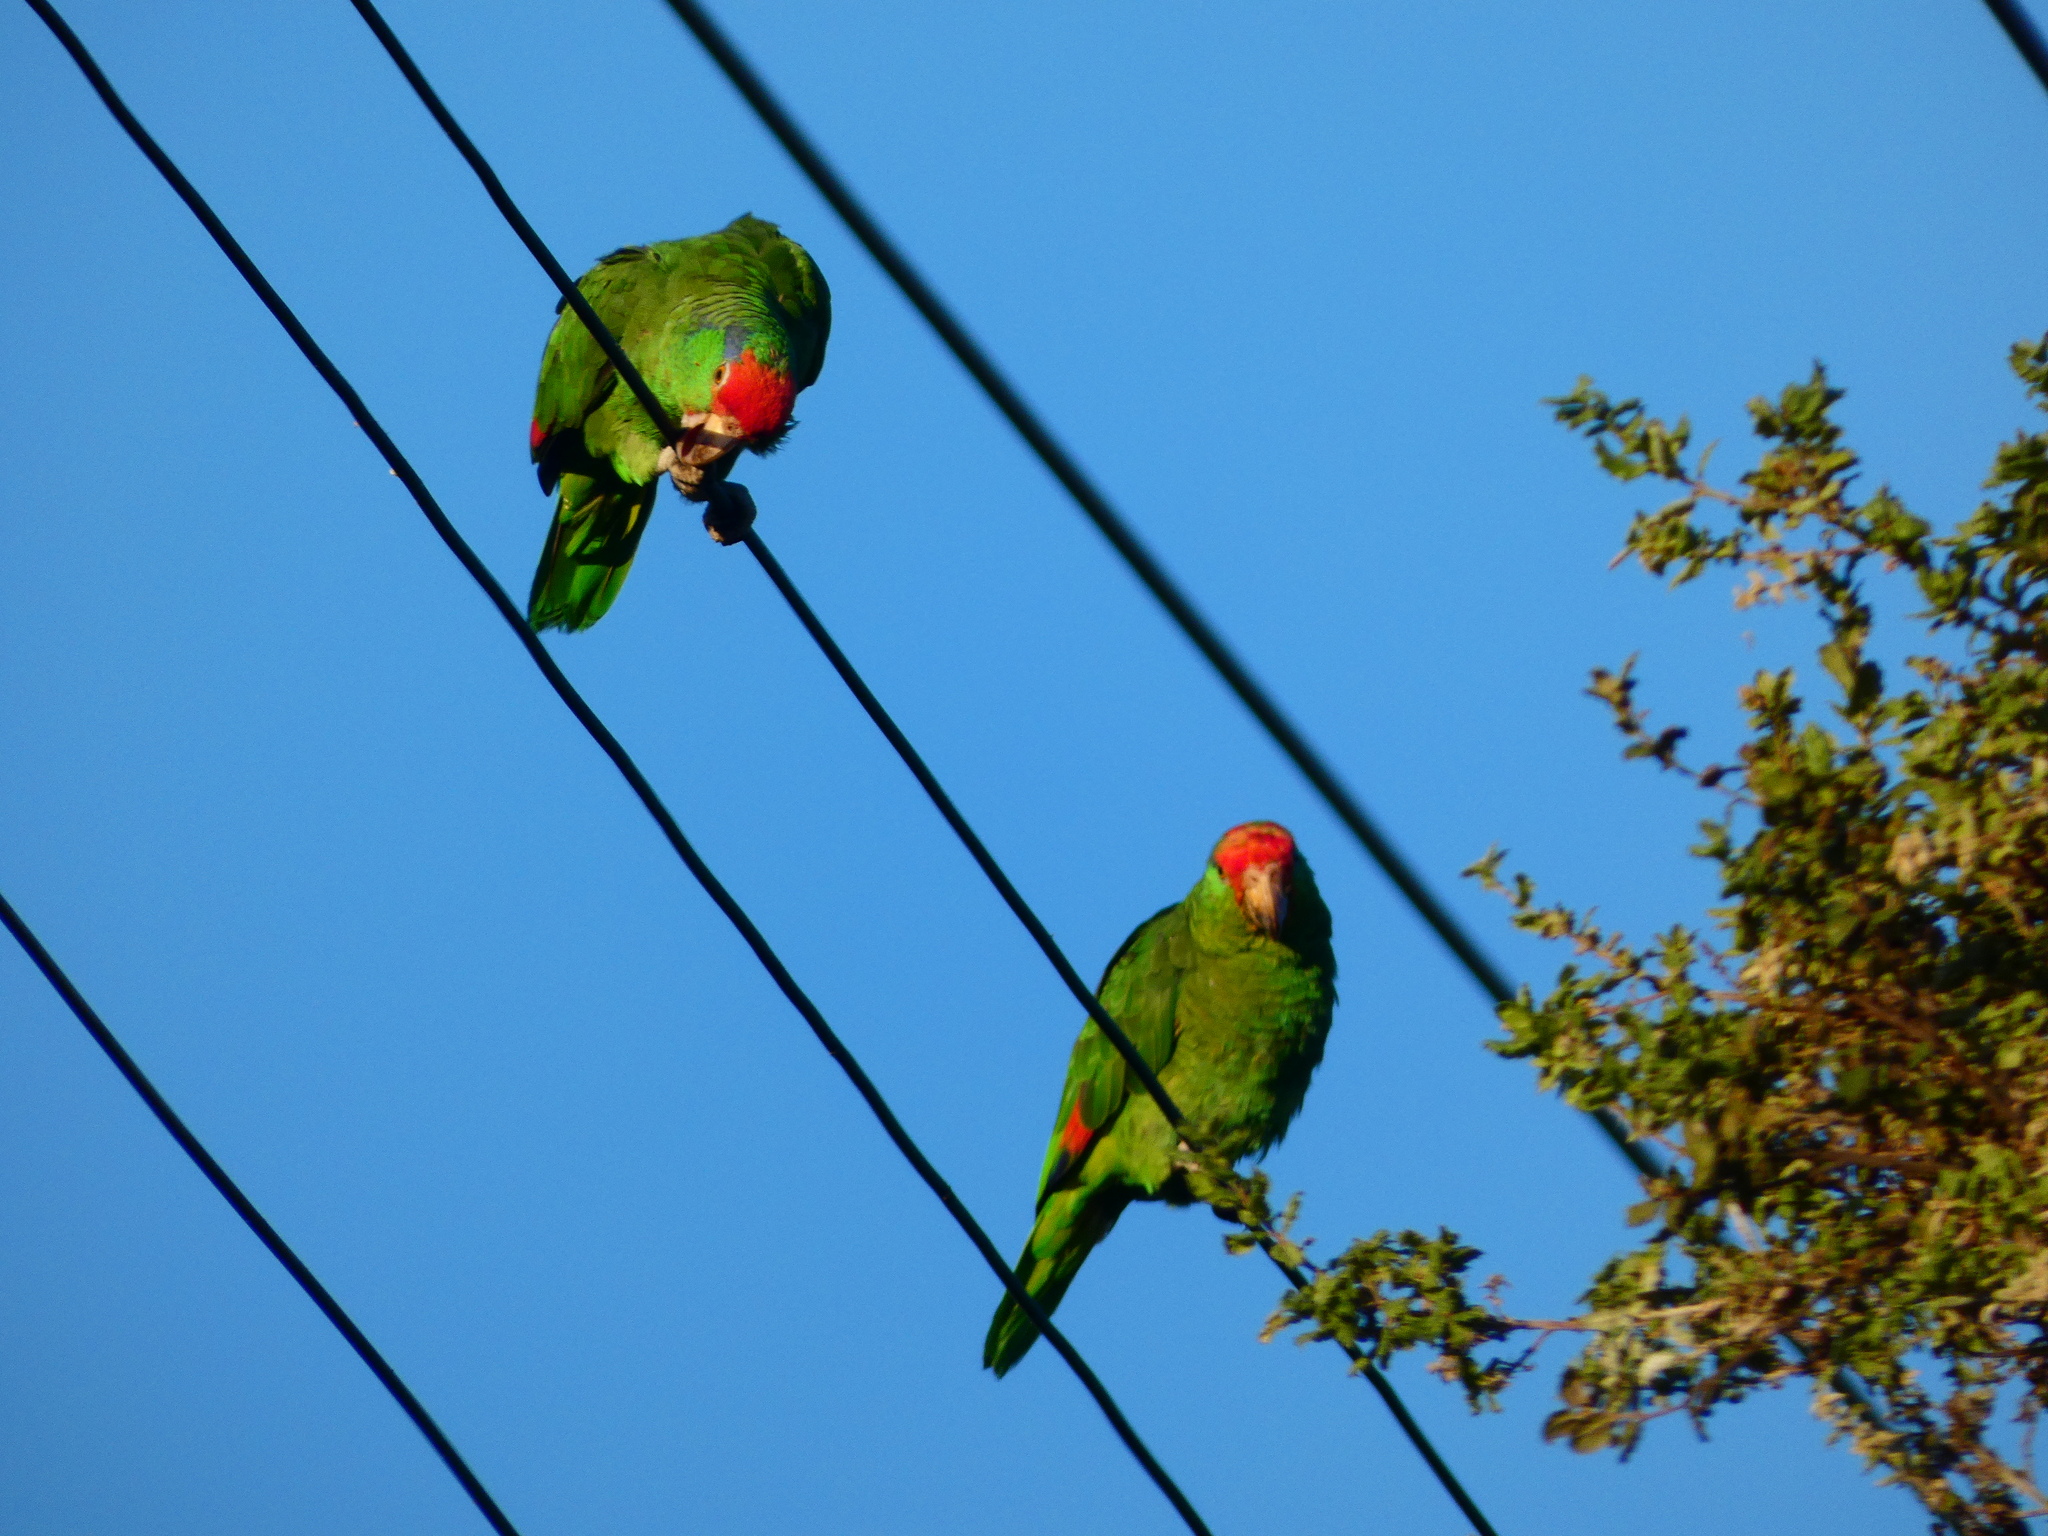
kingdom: Animalia
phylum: Chordata
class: Aves
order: Psittaciformes
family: Psittacidae
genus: Amazona
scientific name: Amazona viridigenalis
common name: Red-crowned amazon
